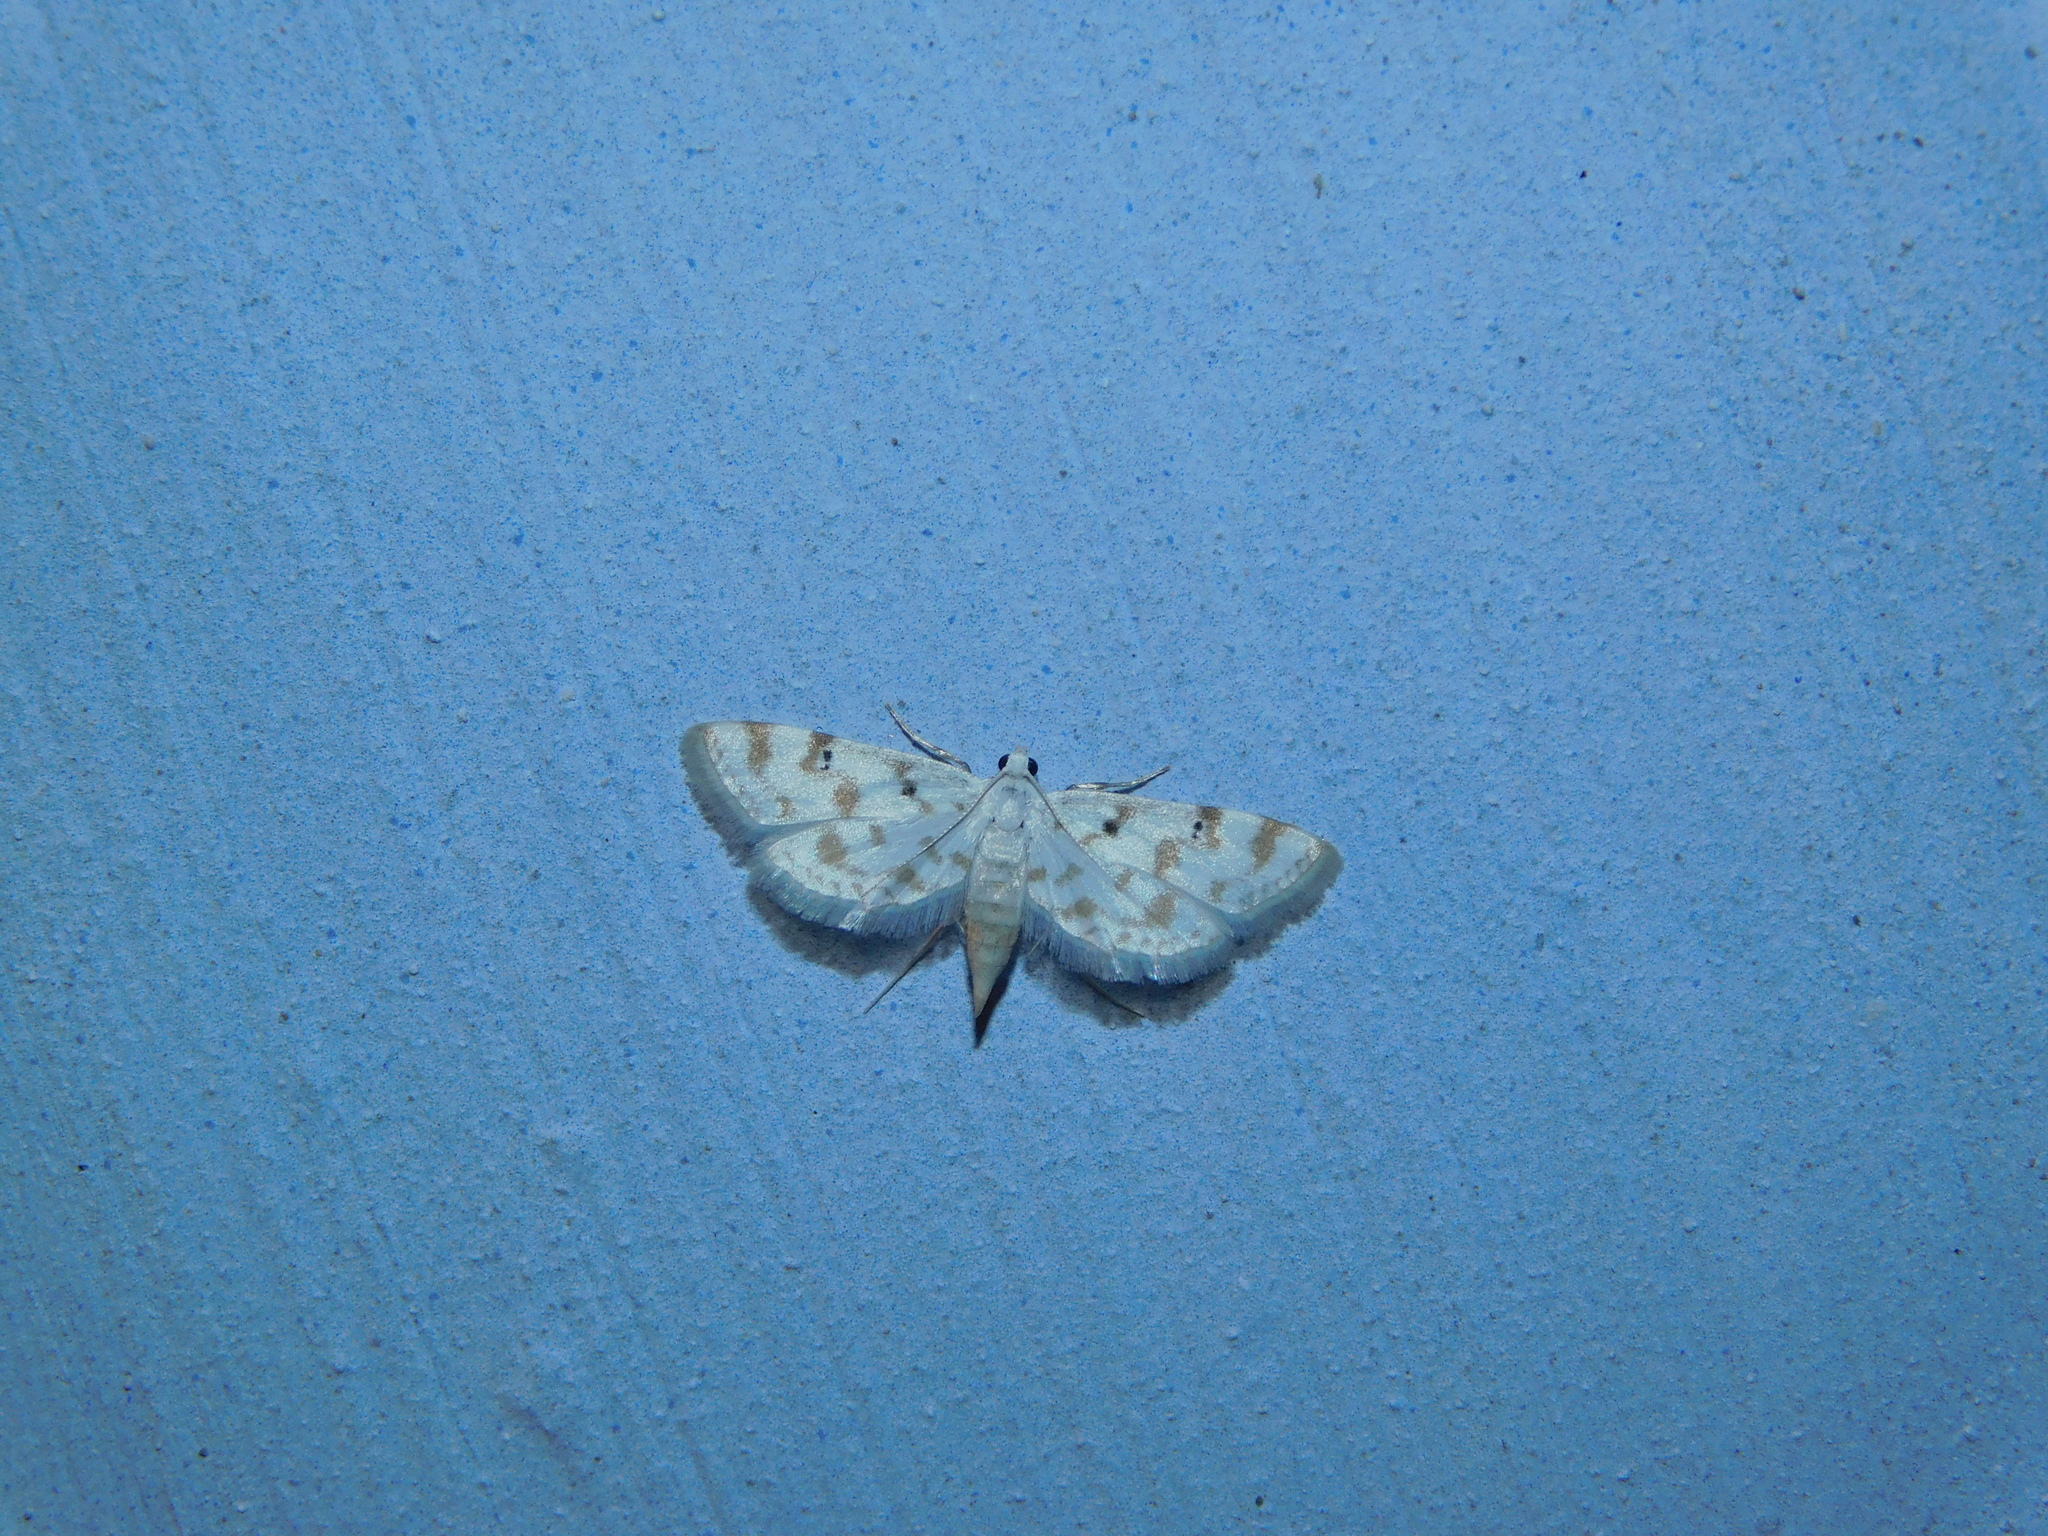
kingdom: Animalia
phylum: Arthropoda
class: Insecta
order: Lepidoptera
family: Crambidae
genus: Parapoynx
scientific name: Parapoynx stagnalis
